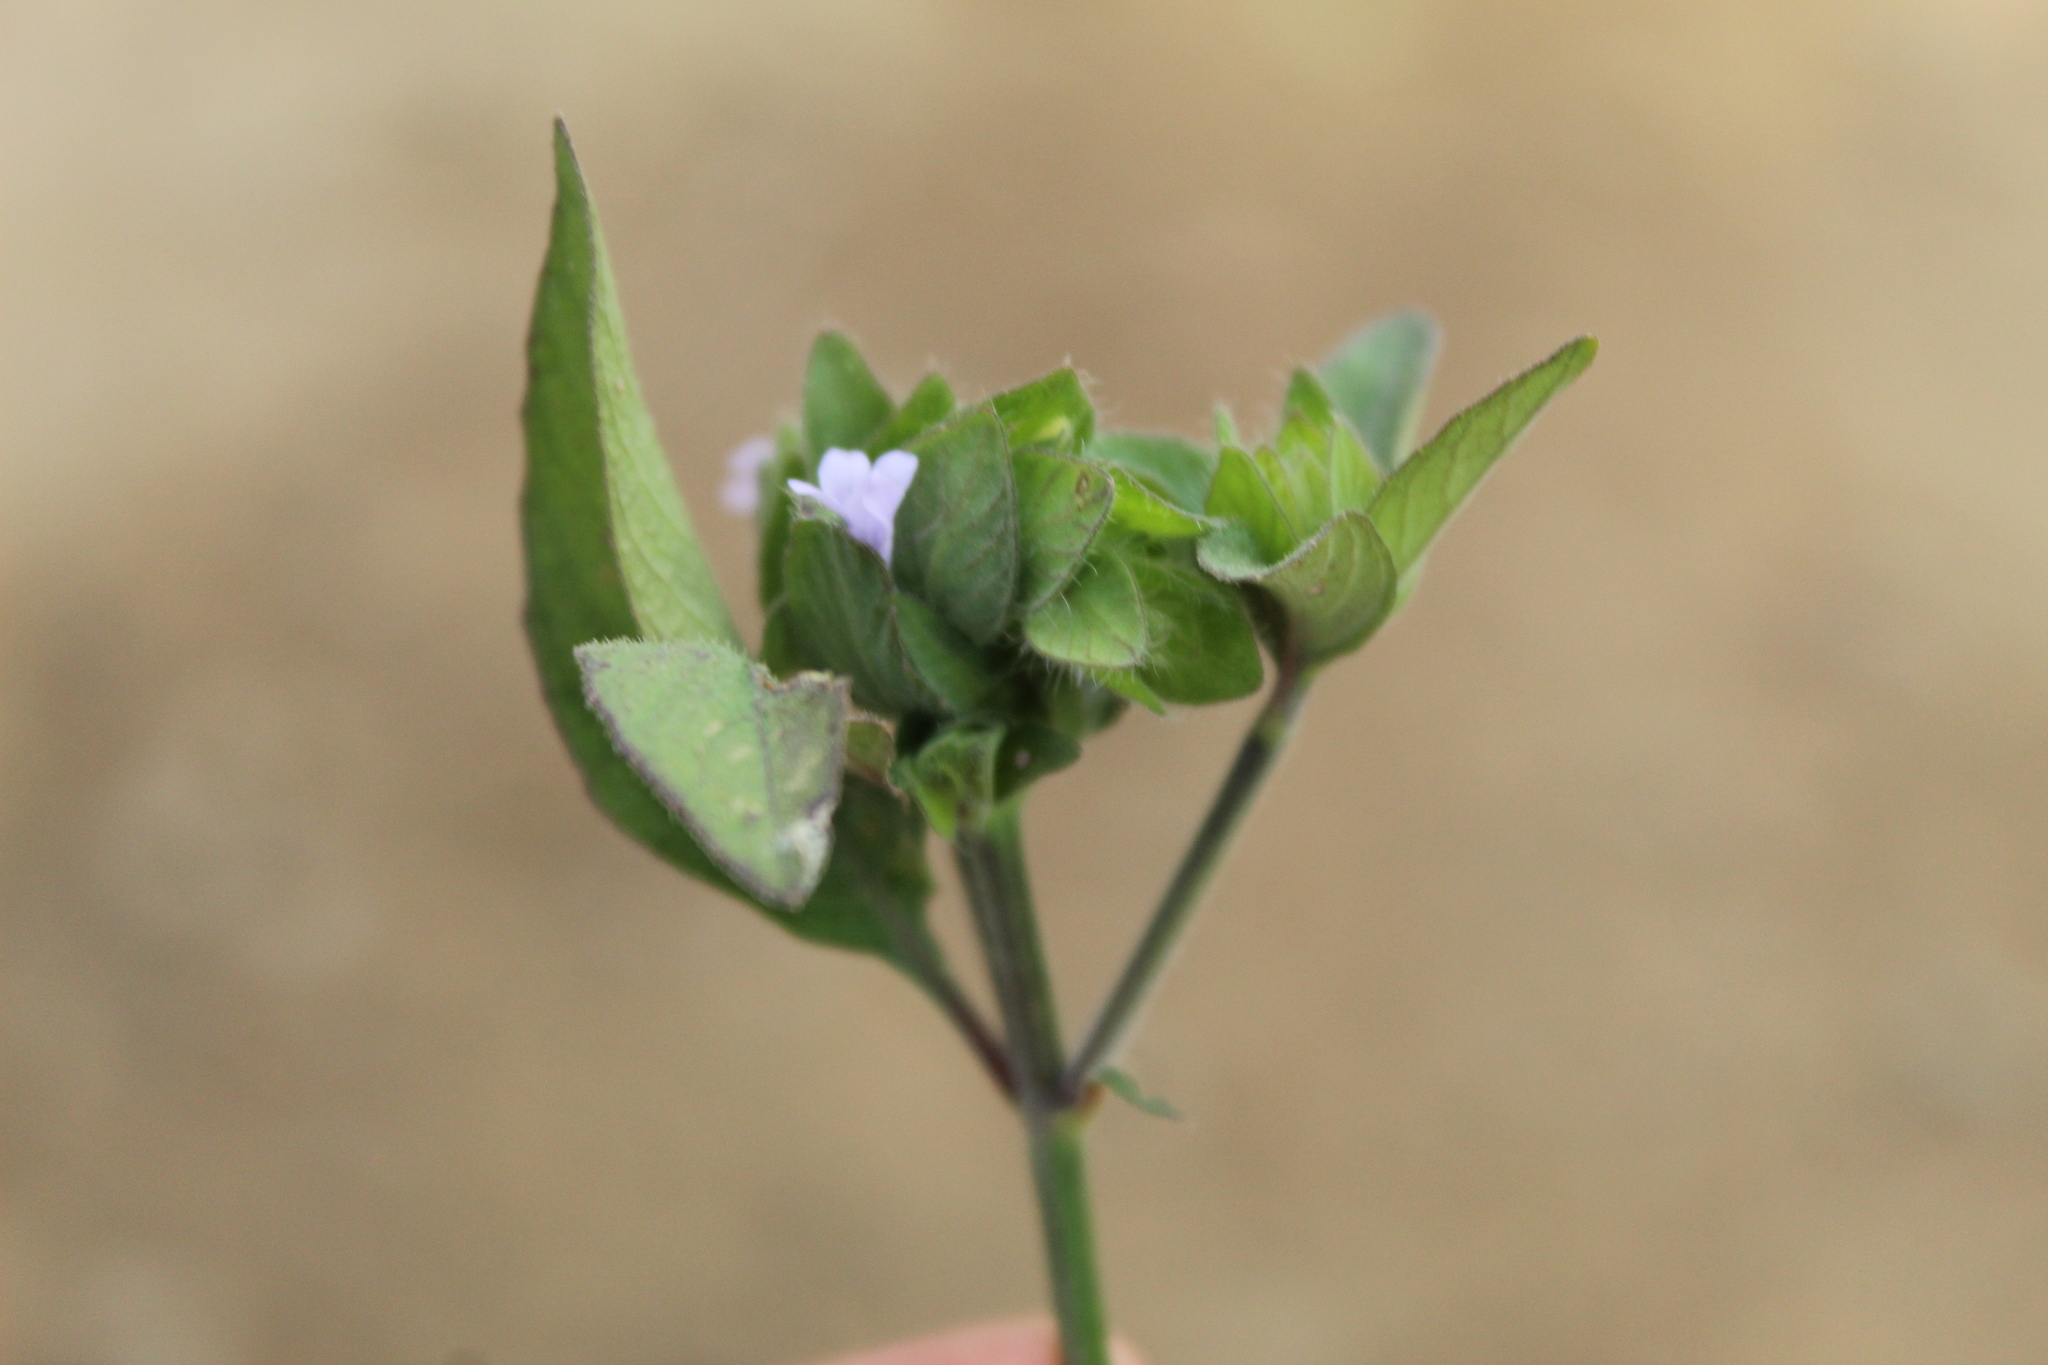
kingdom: Plantae
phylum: Tracheophyta
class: Magnoliopsida
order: Lamiales
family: Acanthaceae
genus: Ruellia
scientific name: Ruellia blechum
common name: Browne's blechum
